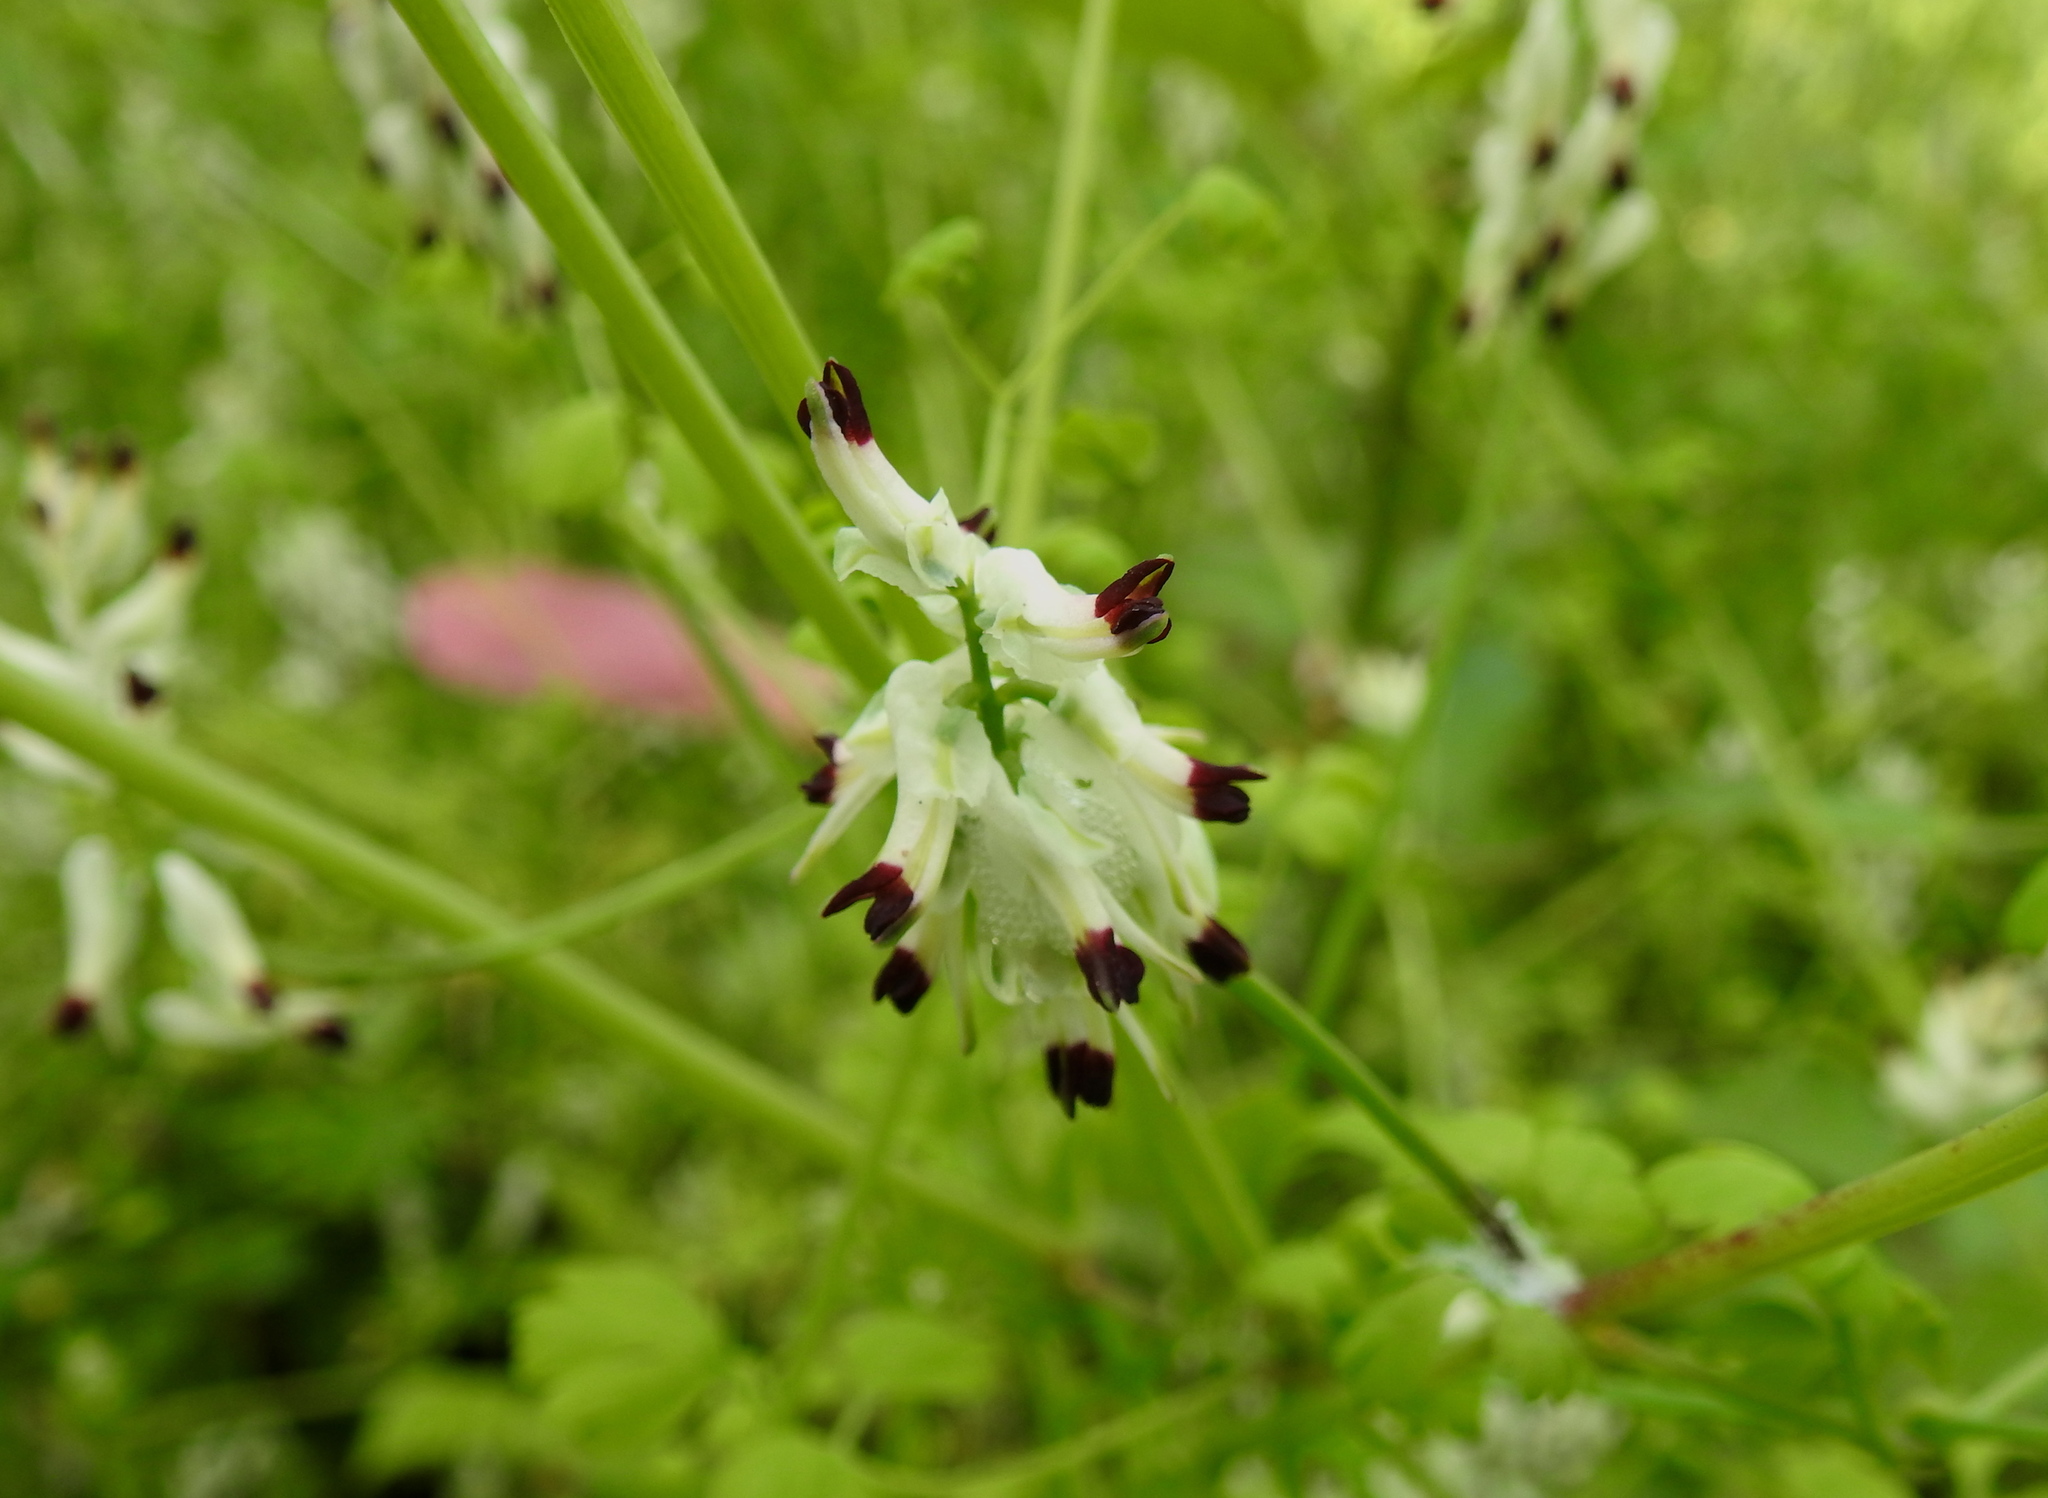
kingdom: Plantae
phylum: Tracheophyta
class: Magnoliopsida
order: Ranunculales
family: Papaveraceae
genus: Fumaria
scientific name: Fumaria capreolata
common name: White ramping-fumitory
